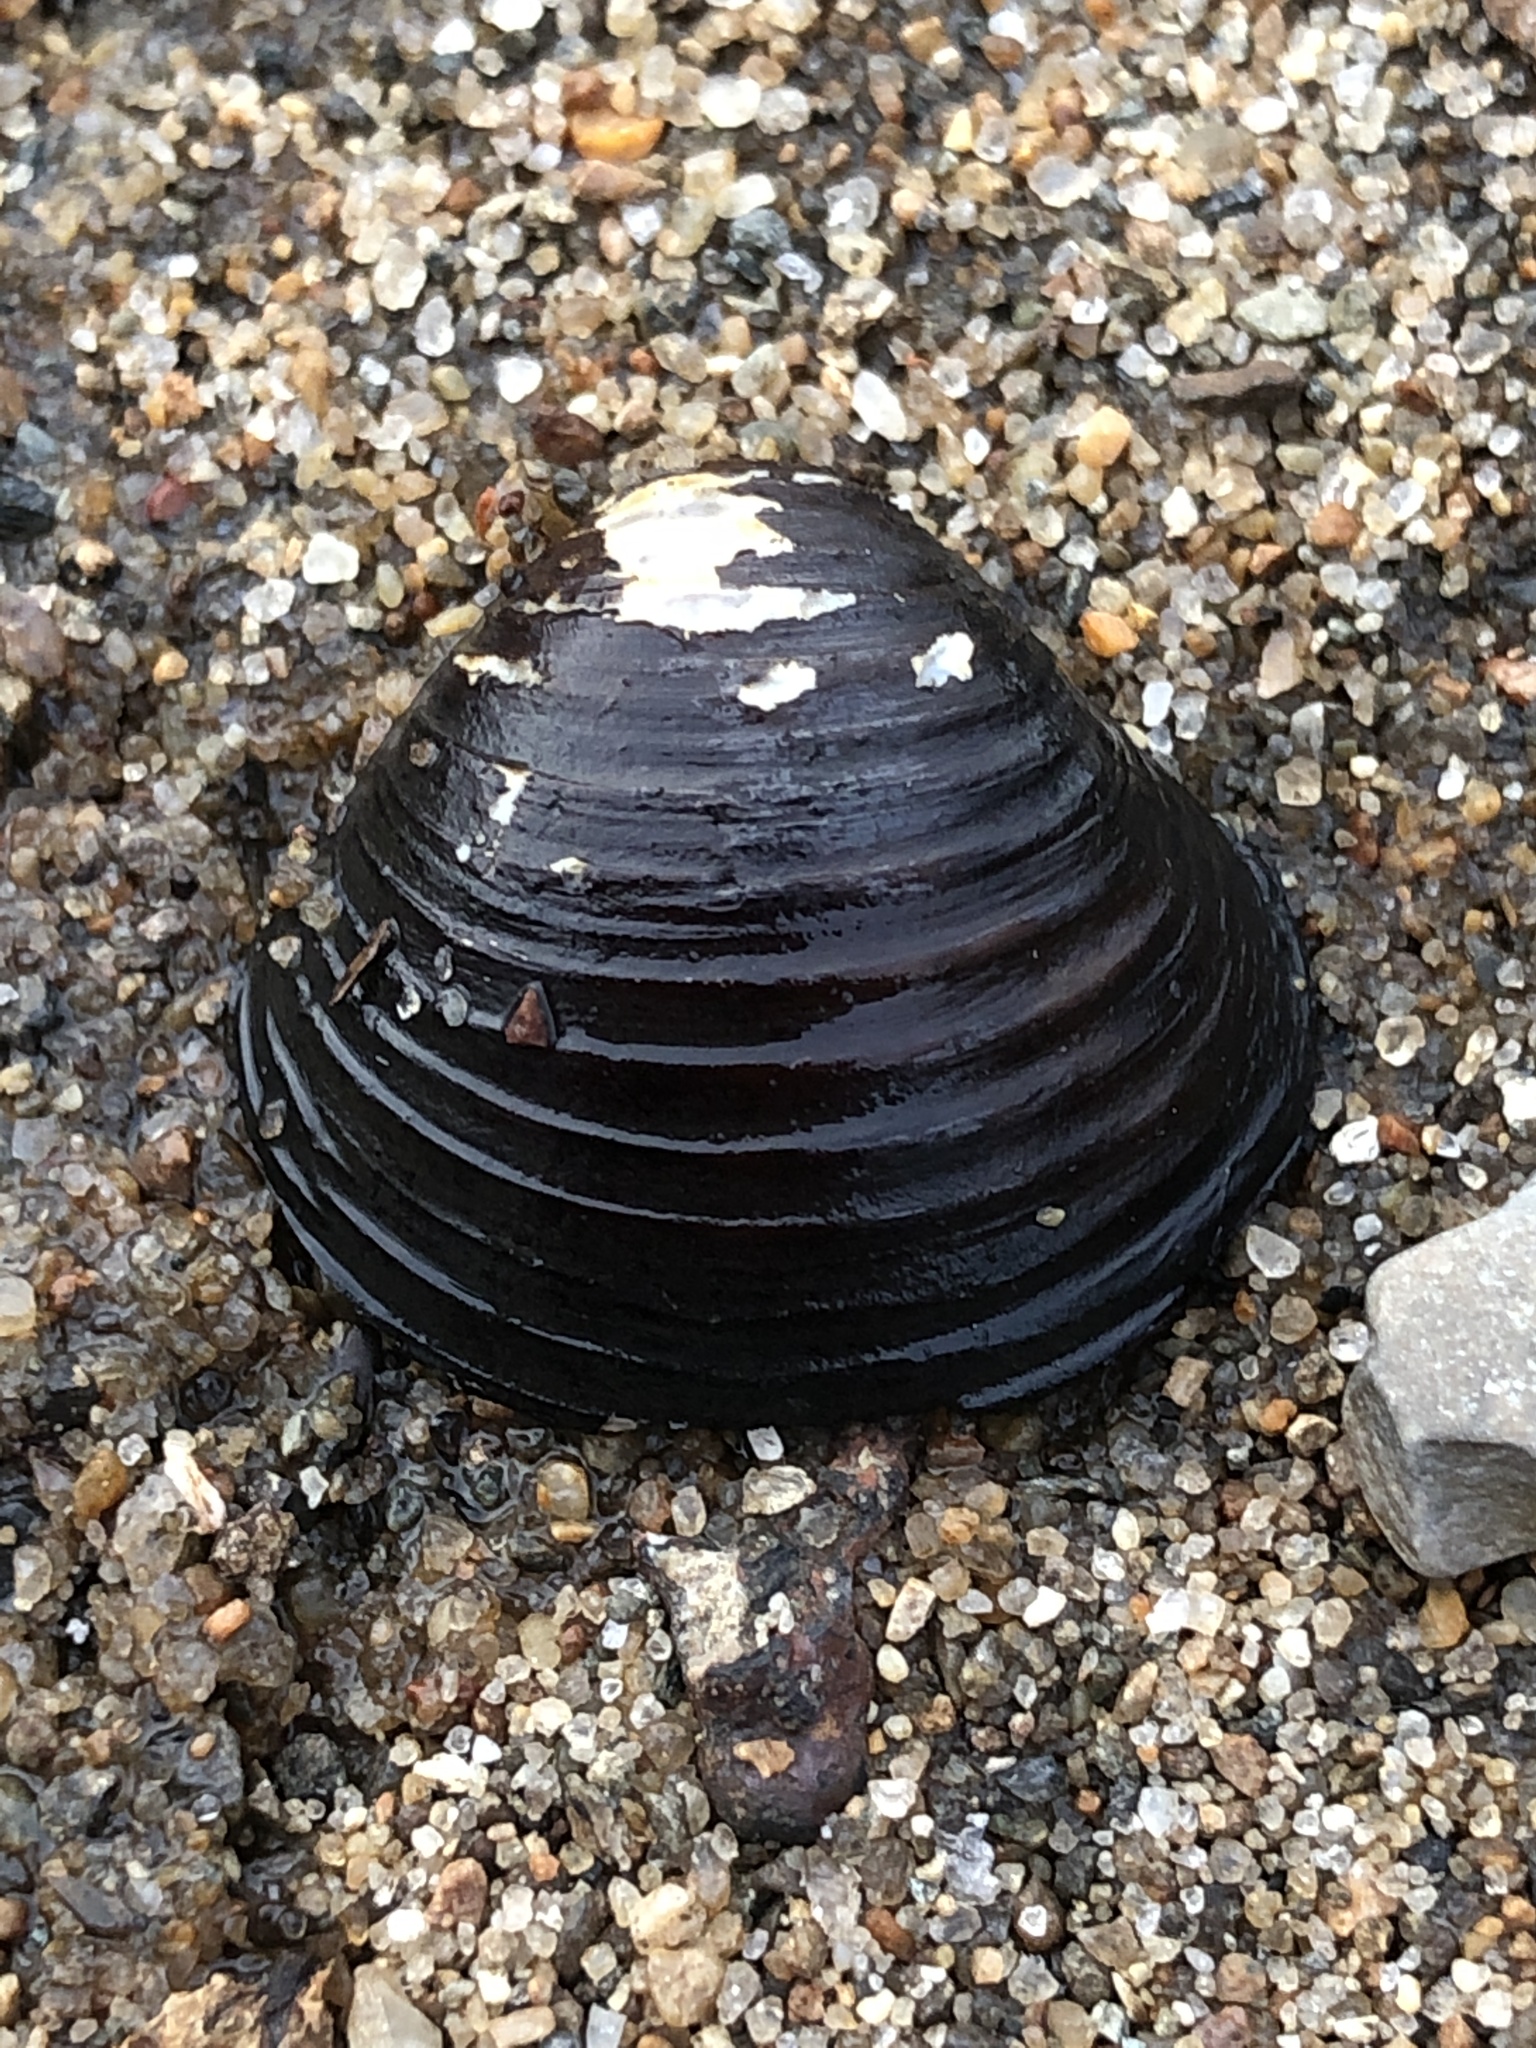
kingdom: Animalia
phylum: Mollusca
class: Bivalvia
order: Venerida
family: Cyrenidae
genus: Corbicula
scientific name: Corbicula fluminea
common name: Asian clam
